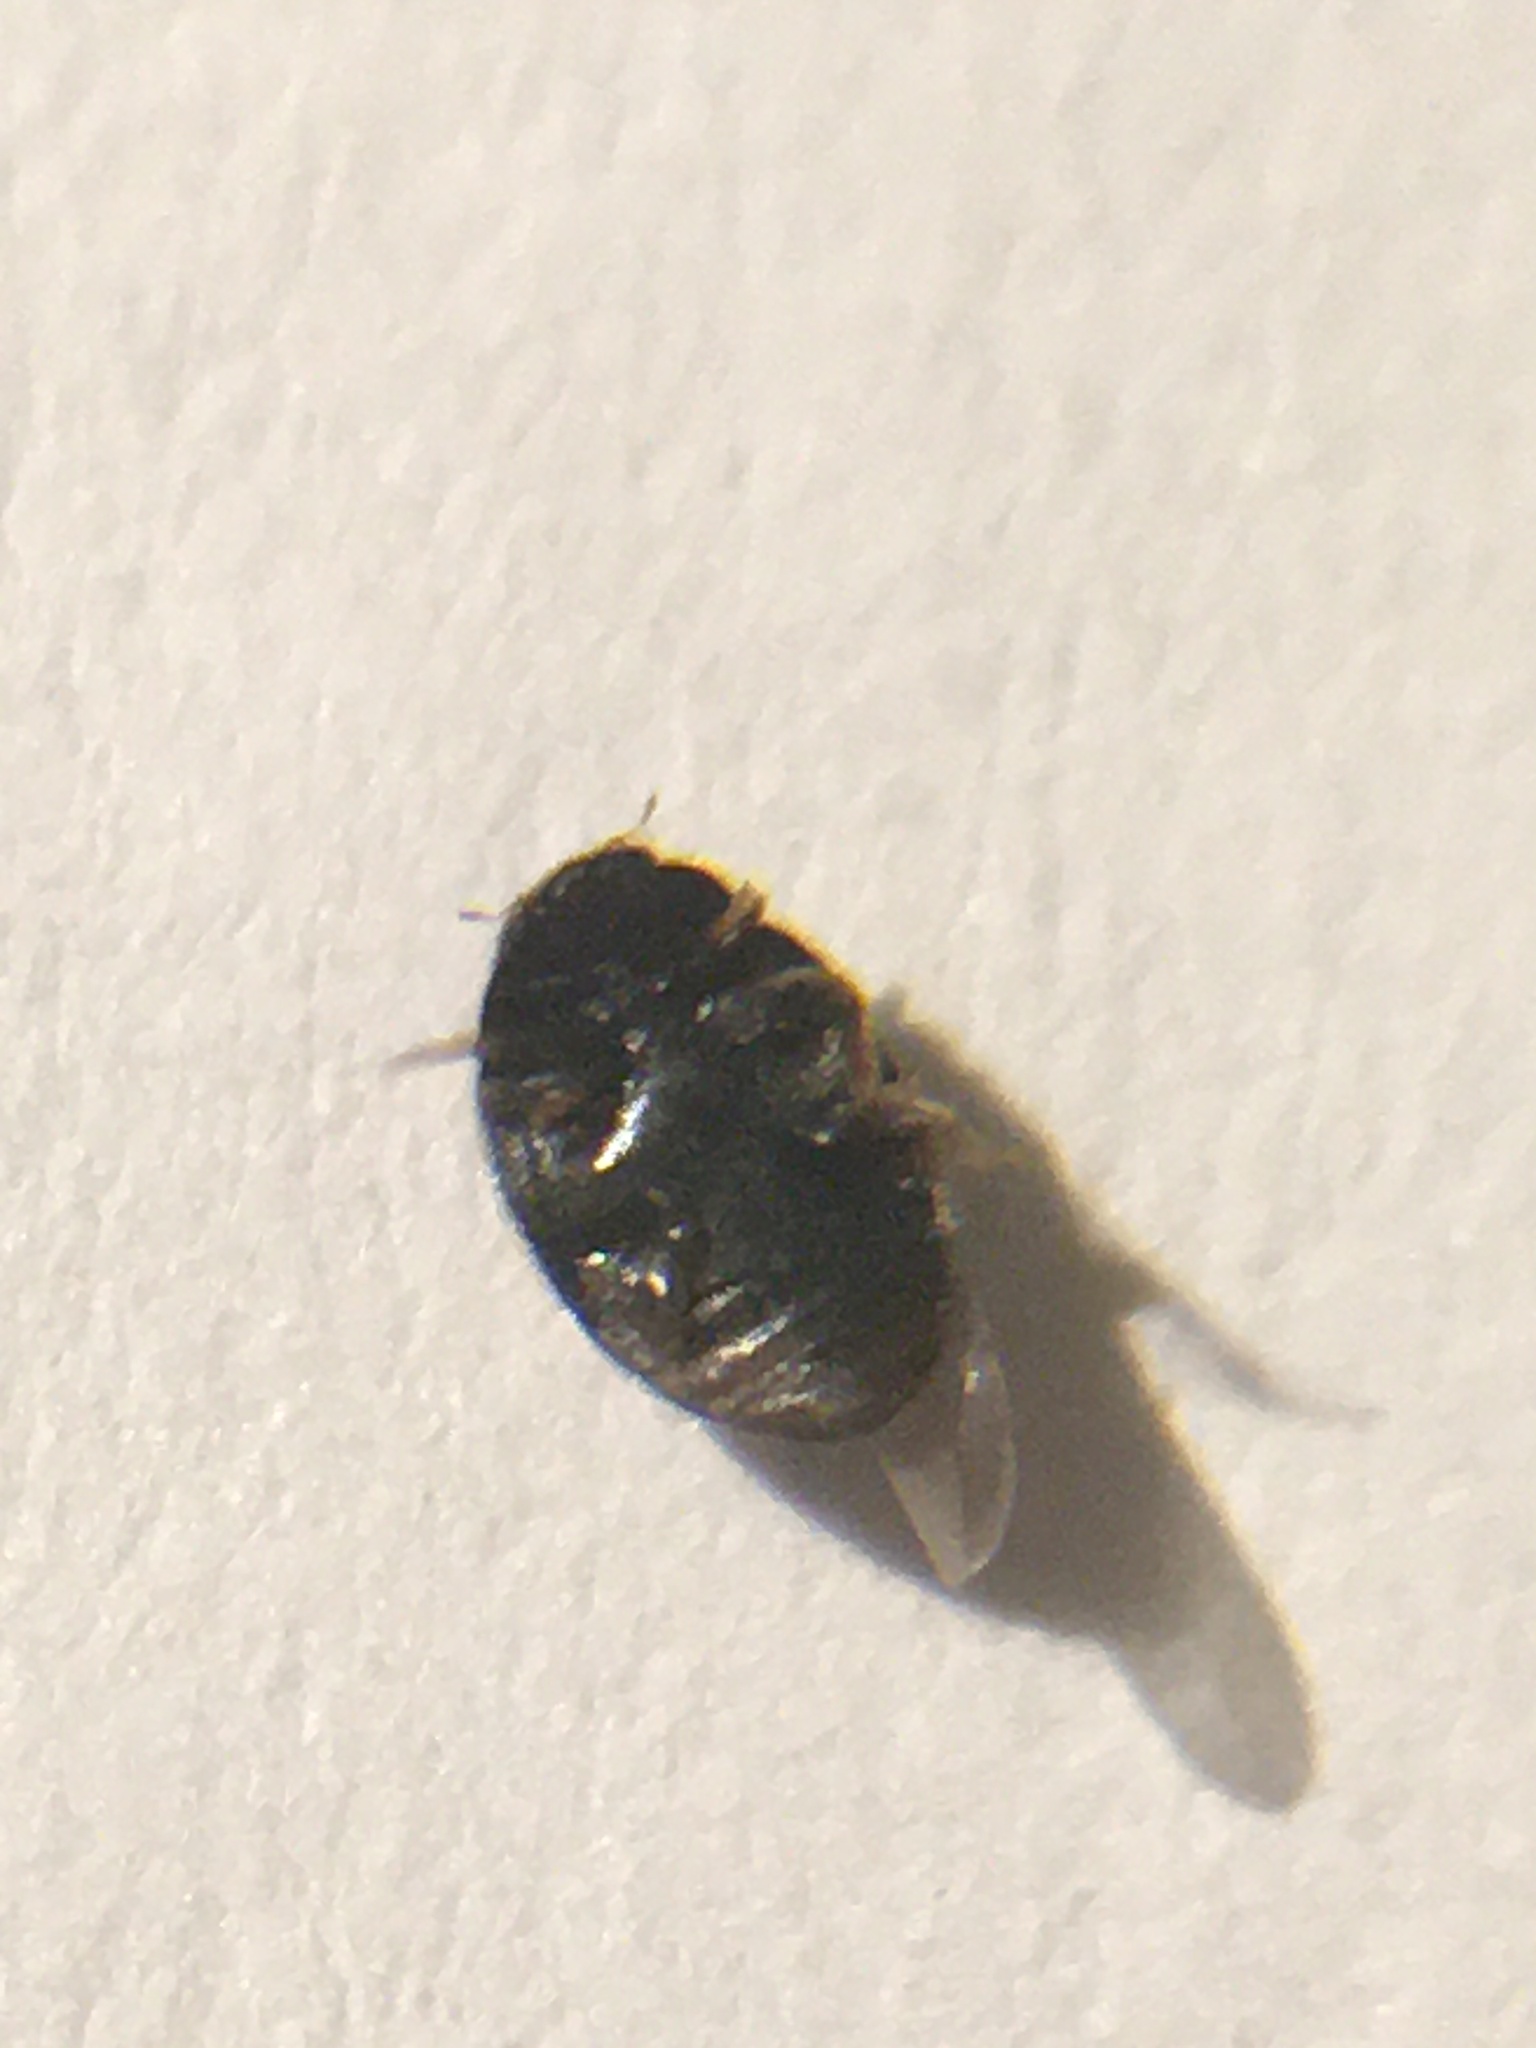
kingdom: Animalia
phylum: Arthropoda
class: Insecta
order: Coleoptera
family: Coccinellidae
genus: Nephus
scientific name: Nephus quadrimaculatus
